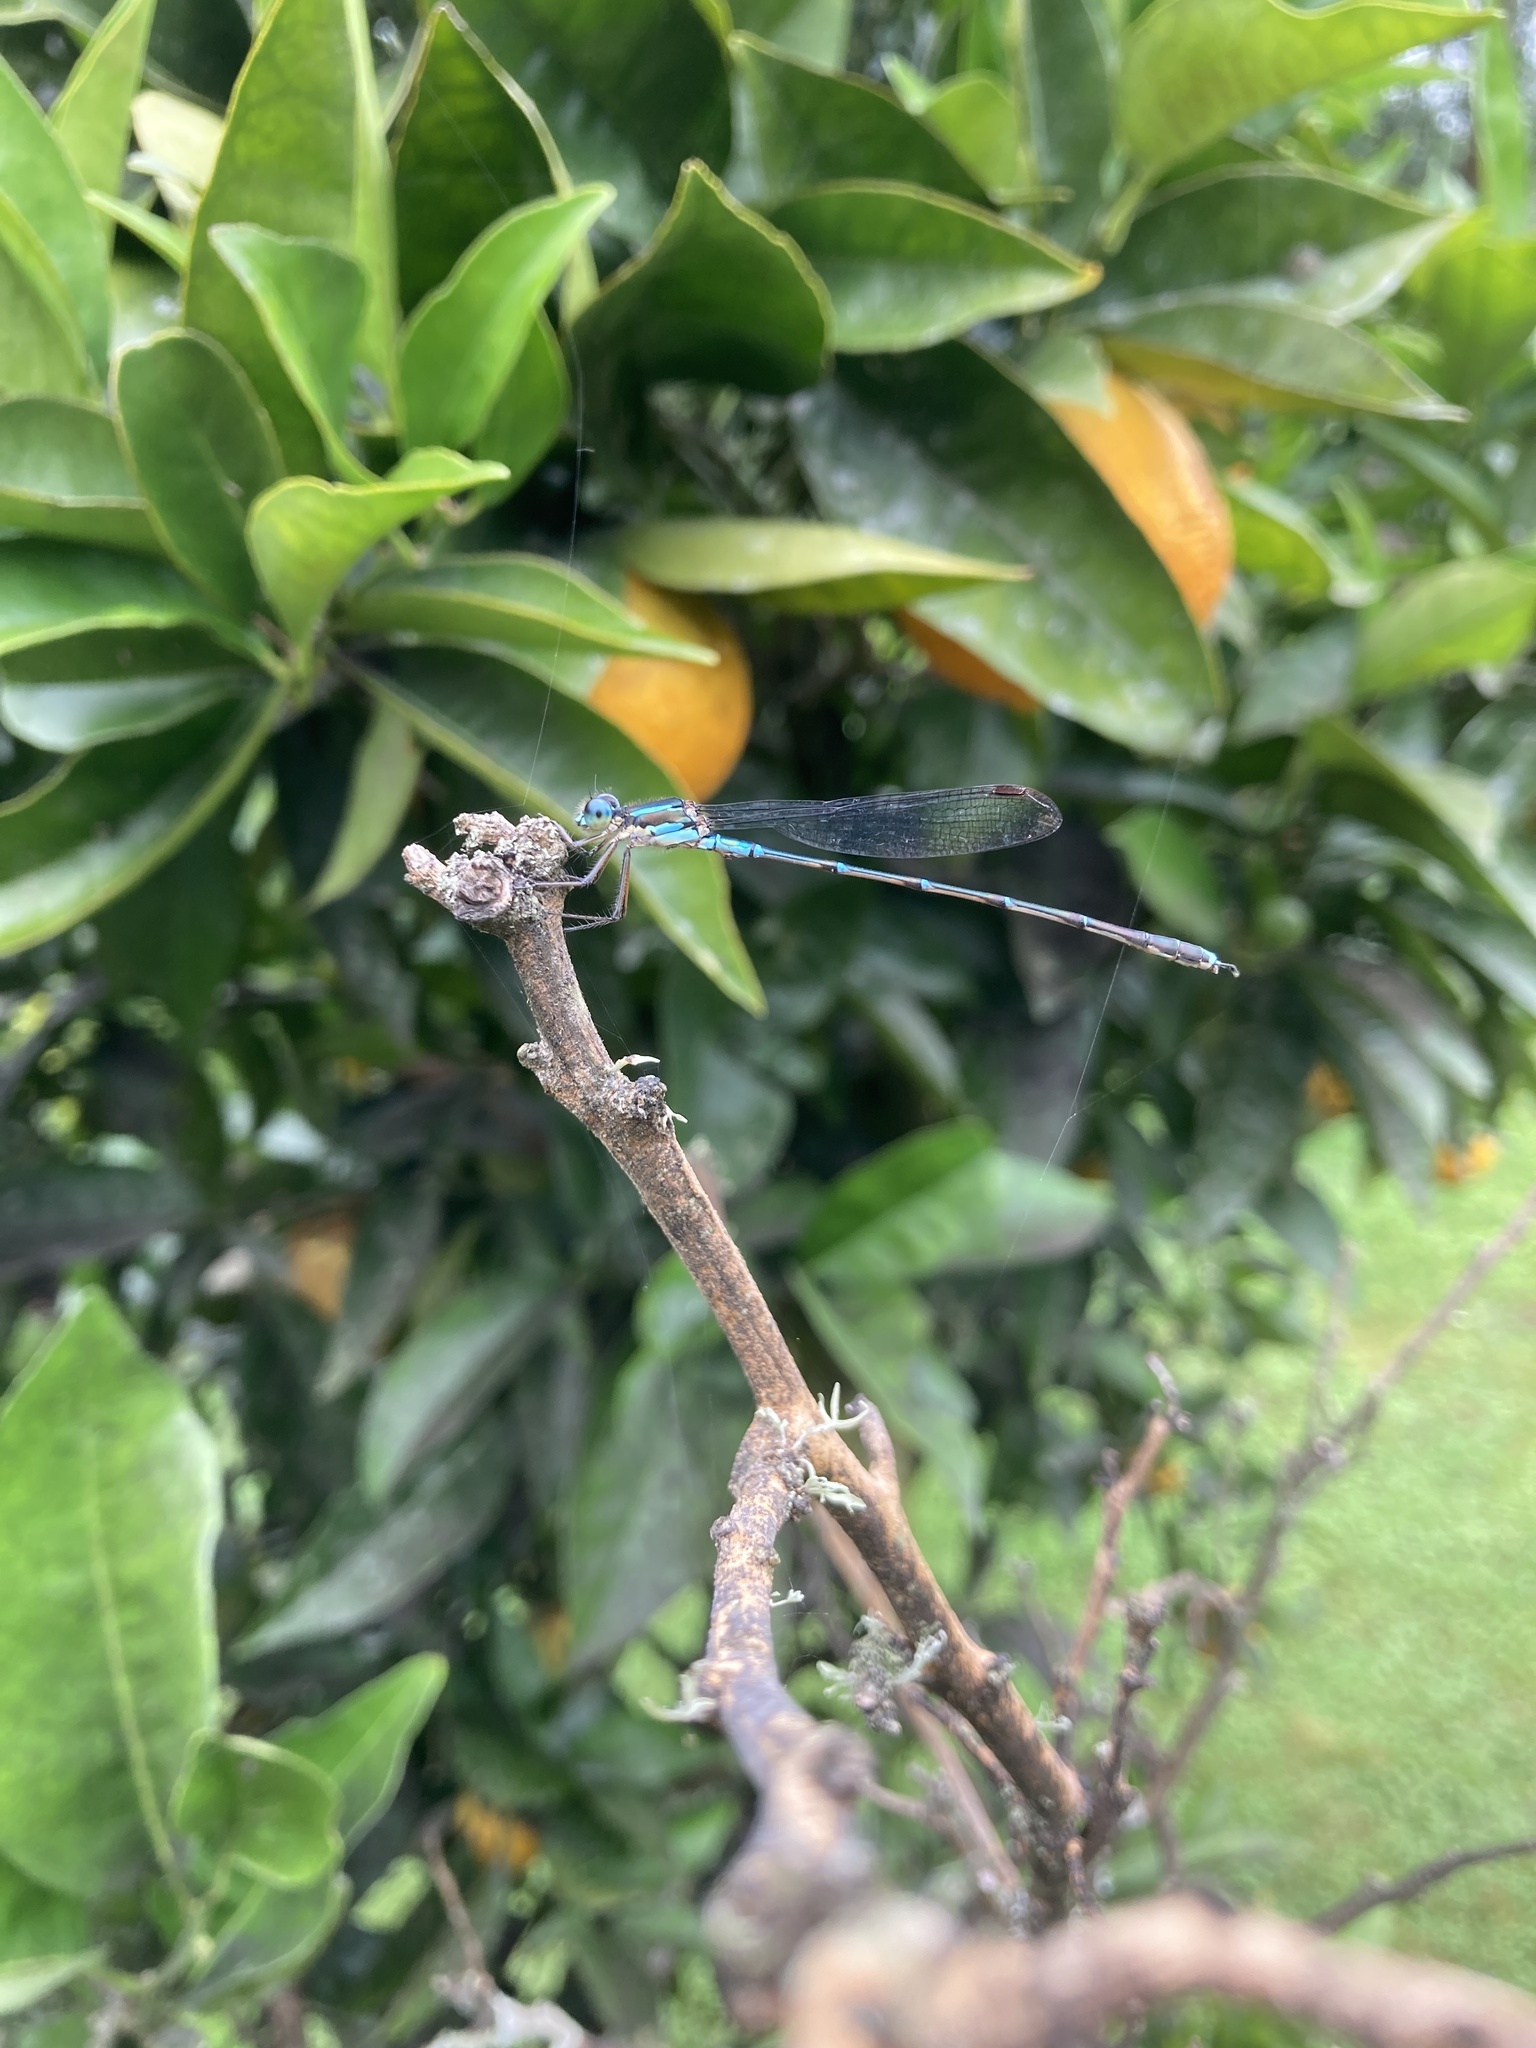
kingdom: Animalia
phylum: Arthropoda
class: Insecta
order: Odonata
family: Lestidae
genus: Austrolestes
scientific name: Austrolestes colensonis
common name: Blue damselfly
